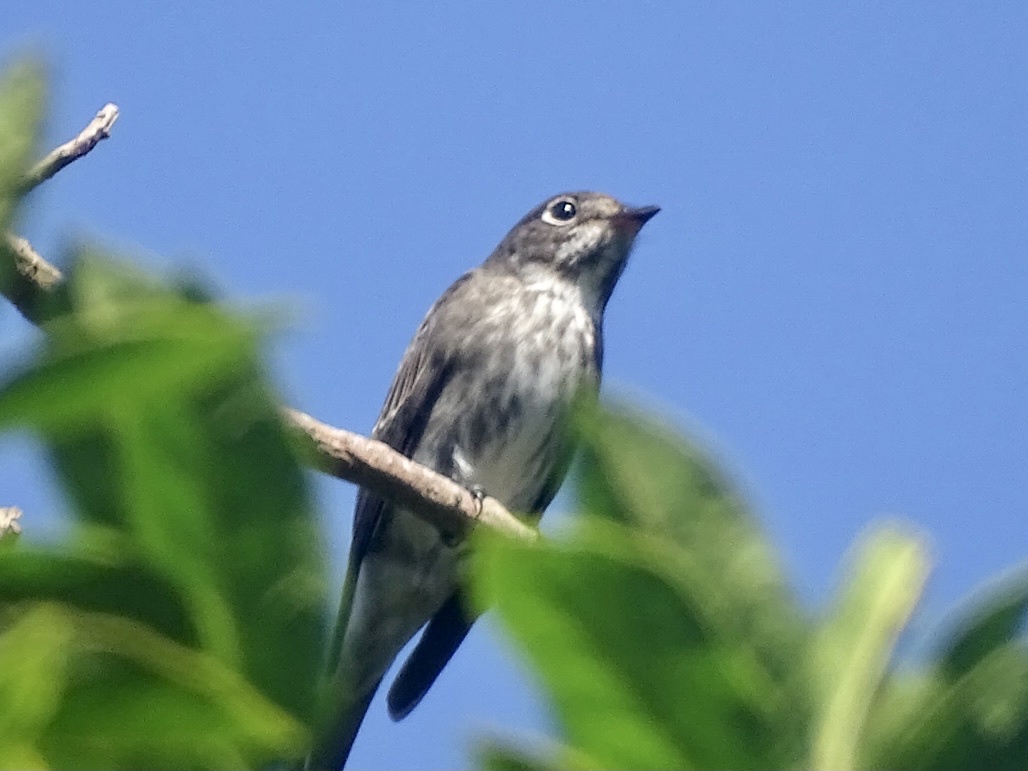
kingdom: Animalia
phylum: Chordata
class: Aves
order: Passeriformes
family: Muscicapidae
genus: Muscicapa
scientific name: Muscicapa griseisticta
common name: Gray-streaked flycatcher
